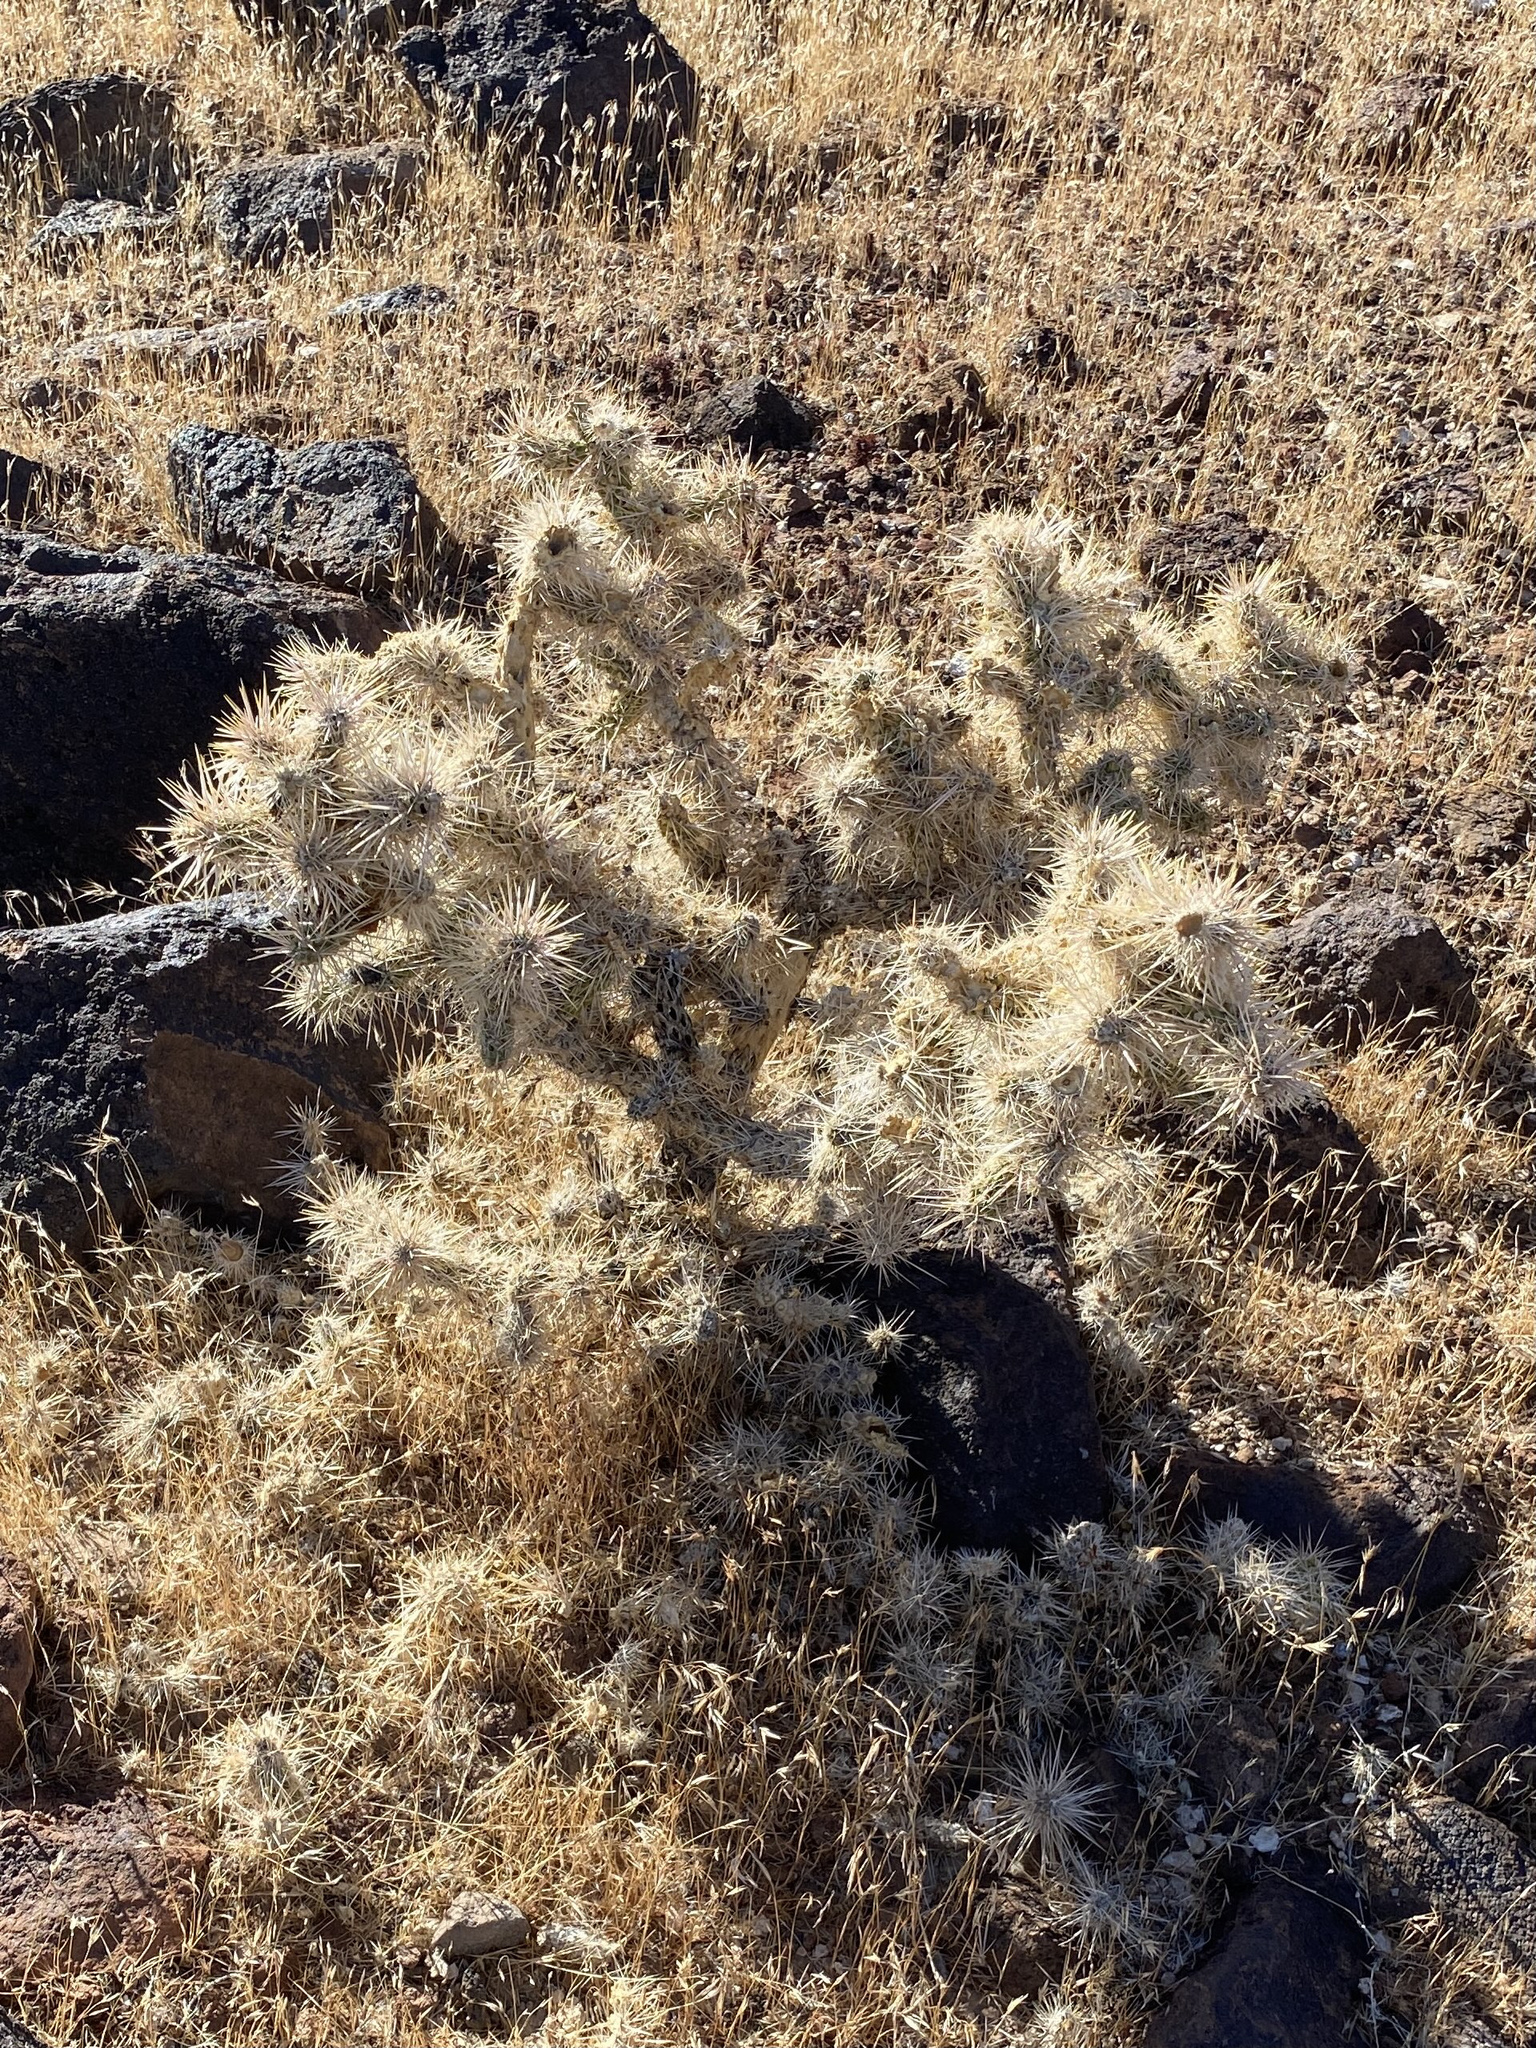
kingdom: Plantae
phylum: Tracheophyta
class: Magnoliopsida
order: Caryophyllales
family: Cactaceae
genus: Cylindropuntia
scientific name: Cylindropuntia echinocarpa
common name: Ground cholla
